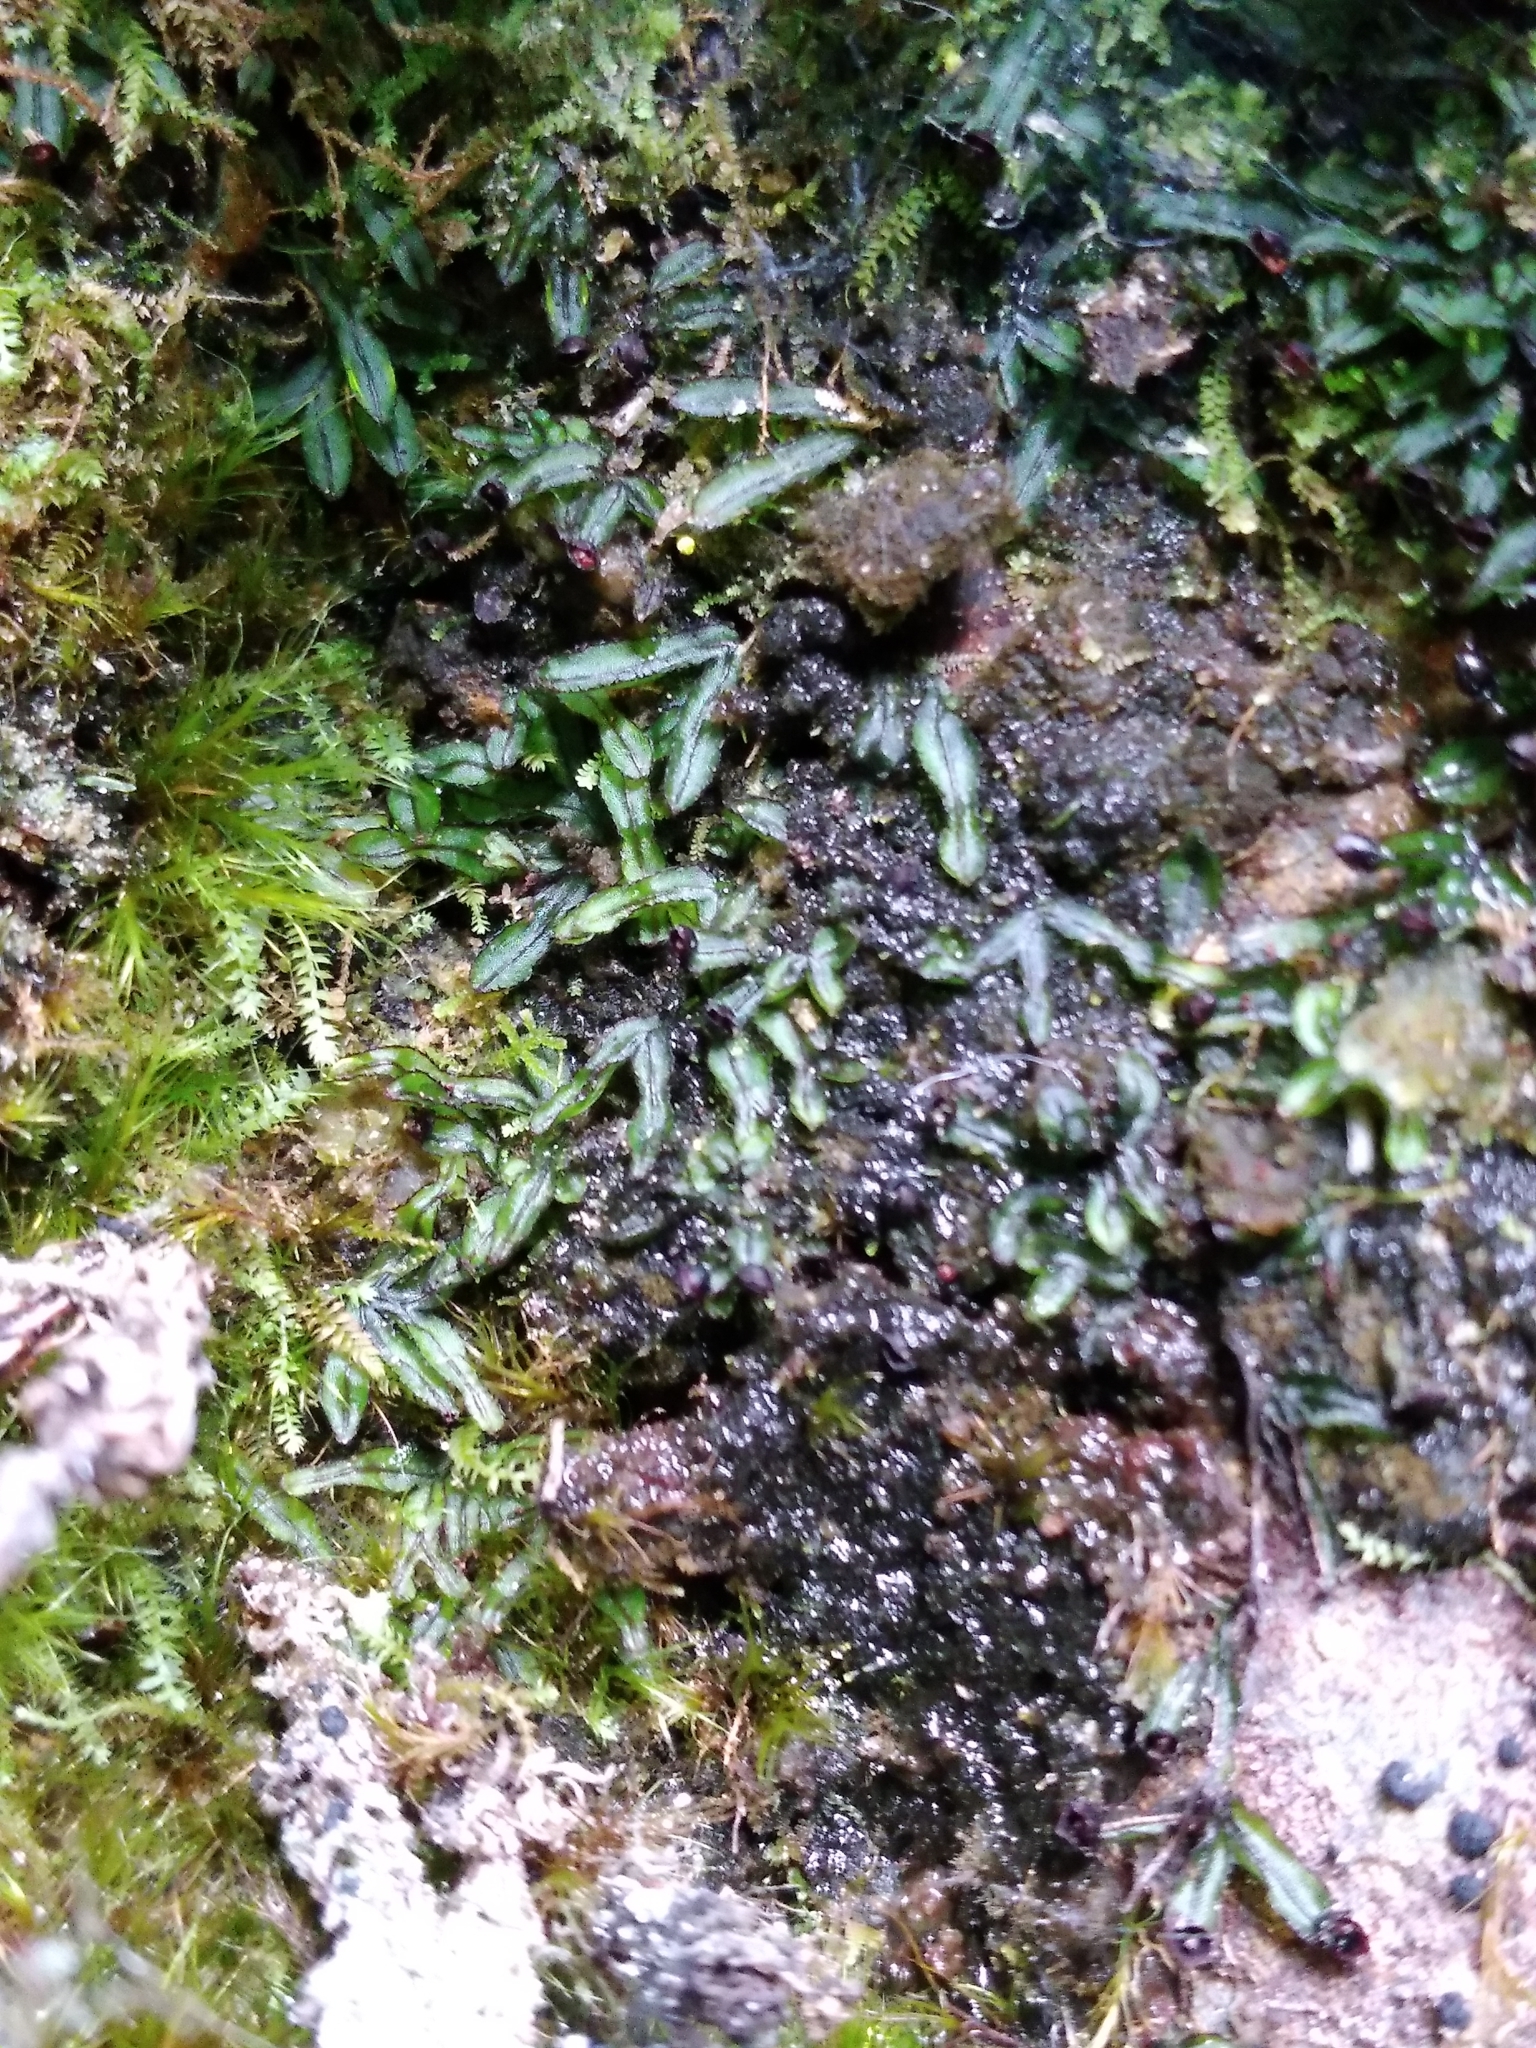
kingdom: Plantae
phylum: Tracheophyta
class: Polypodiopsida
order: Hymenophyllales
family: Hymenophyllaceae
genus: Hymenophyllum
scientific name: Hymenophyllum armstrongii
